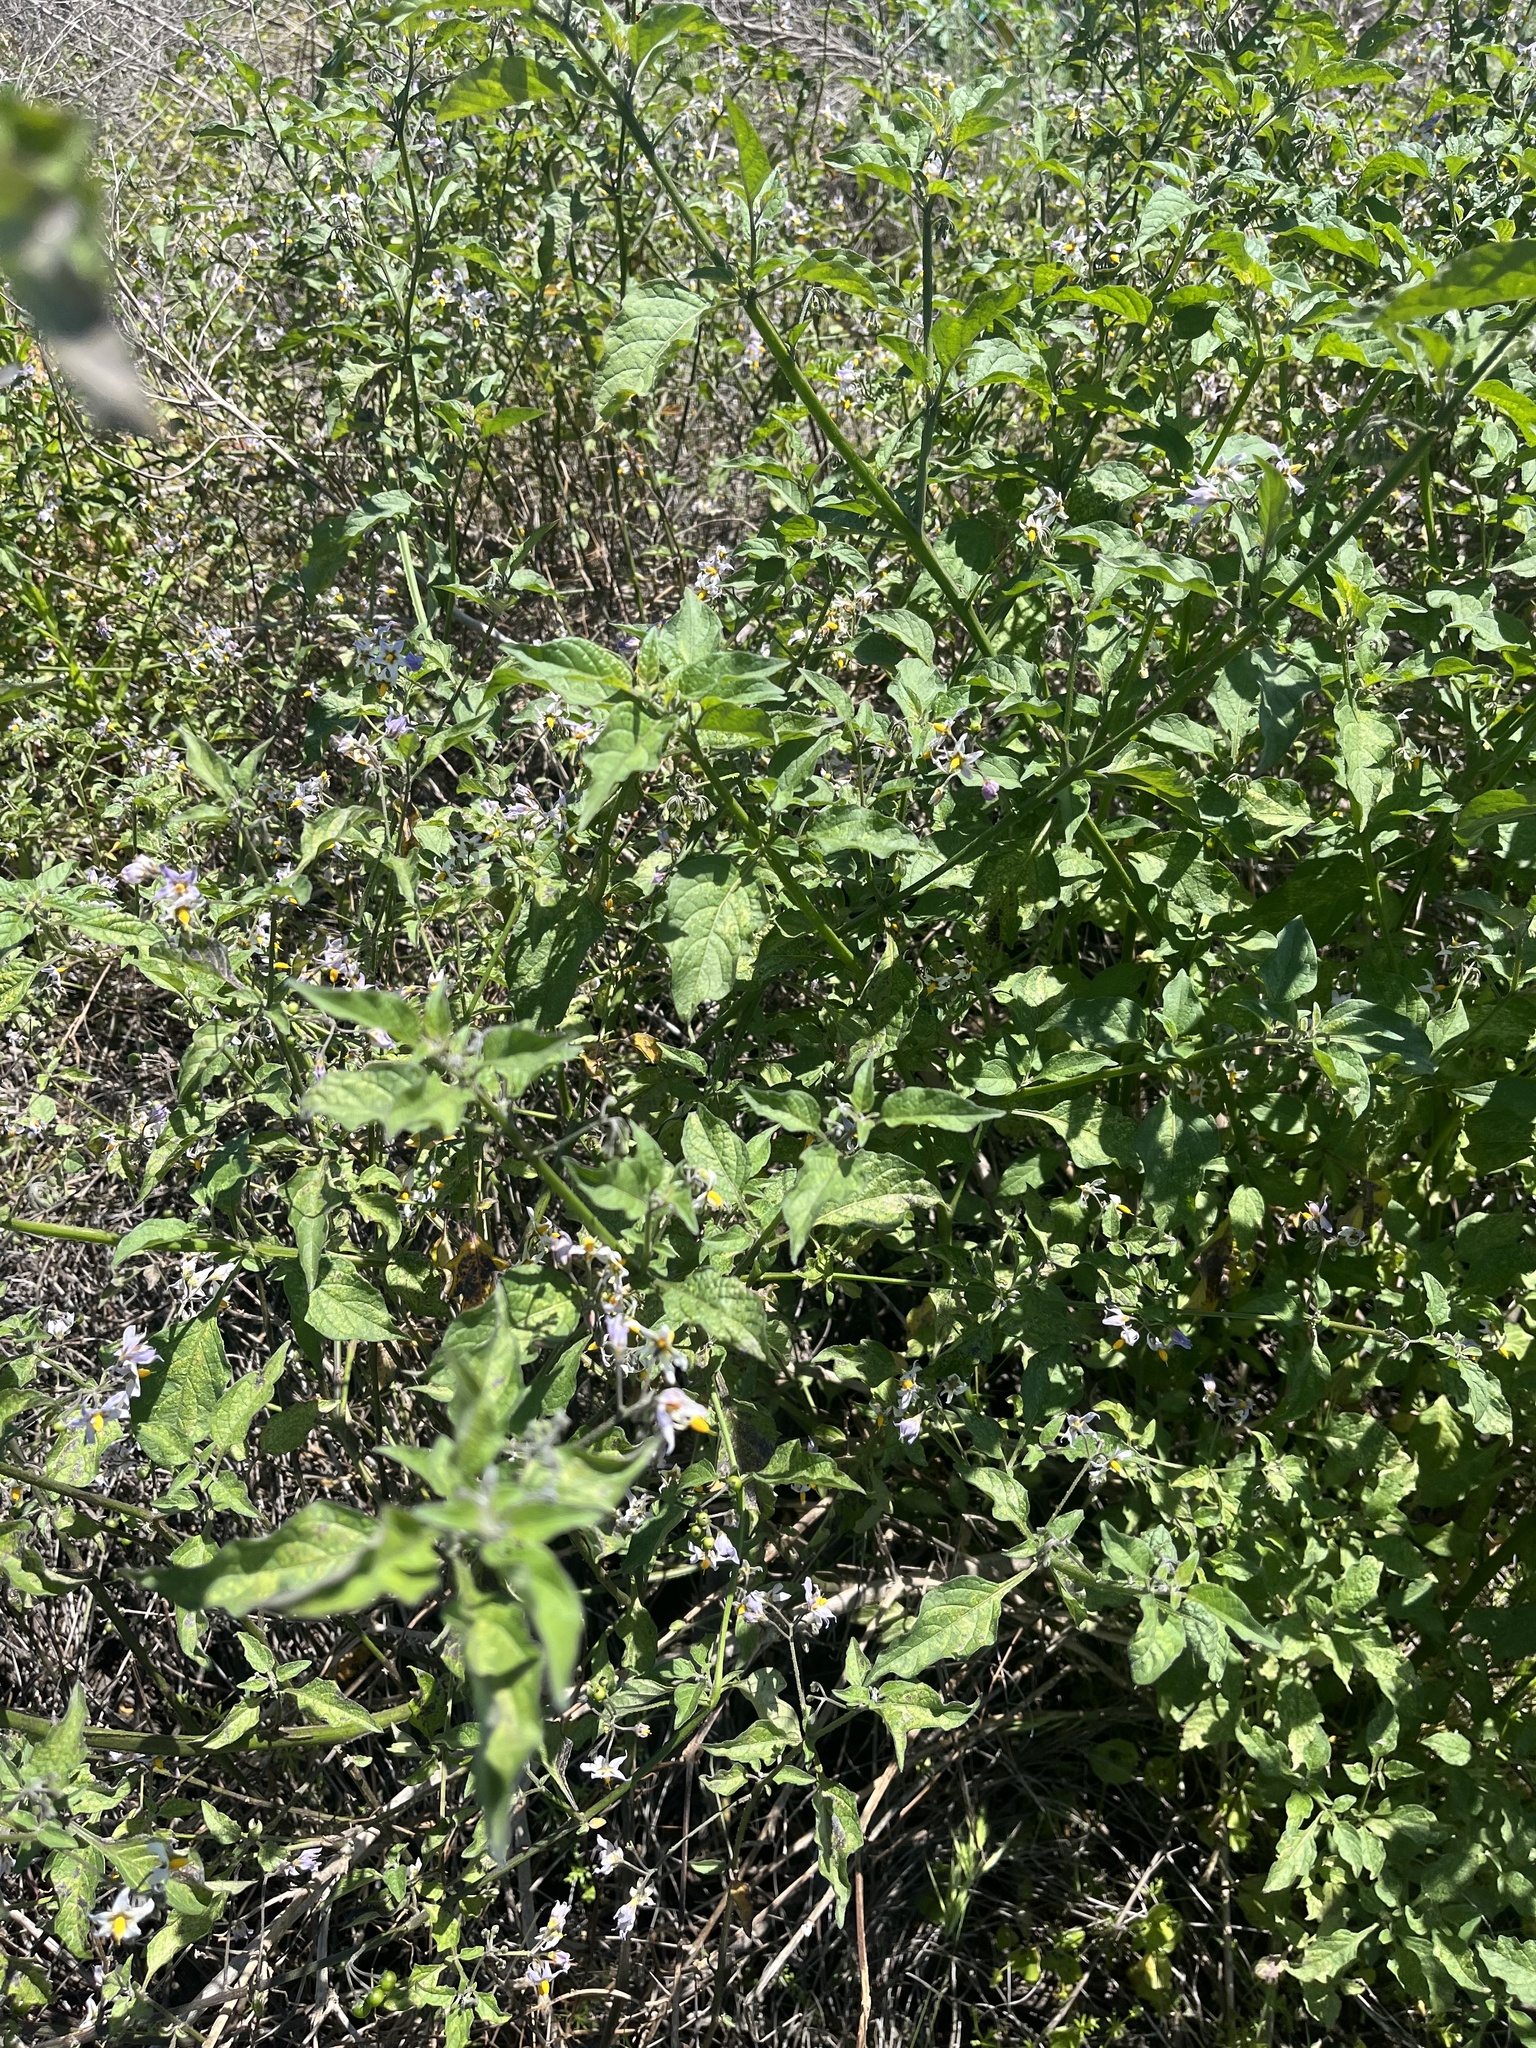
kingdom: Plantae
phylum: Tracheophyta
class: Magnoliopsida
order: Solanales
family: Solanaceae
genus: Solanum
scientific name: Solanum douglasii
